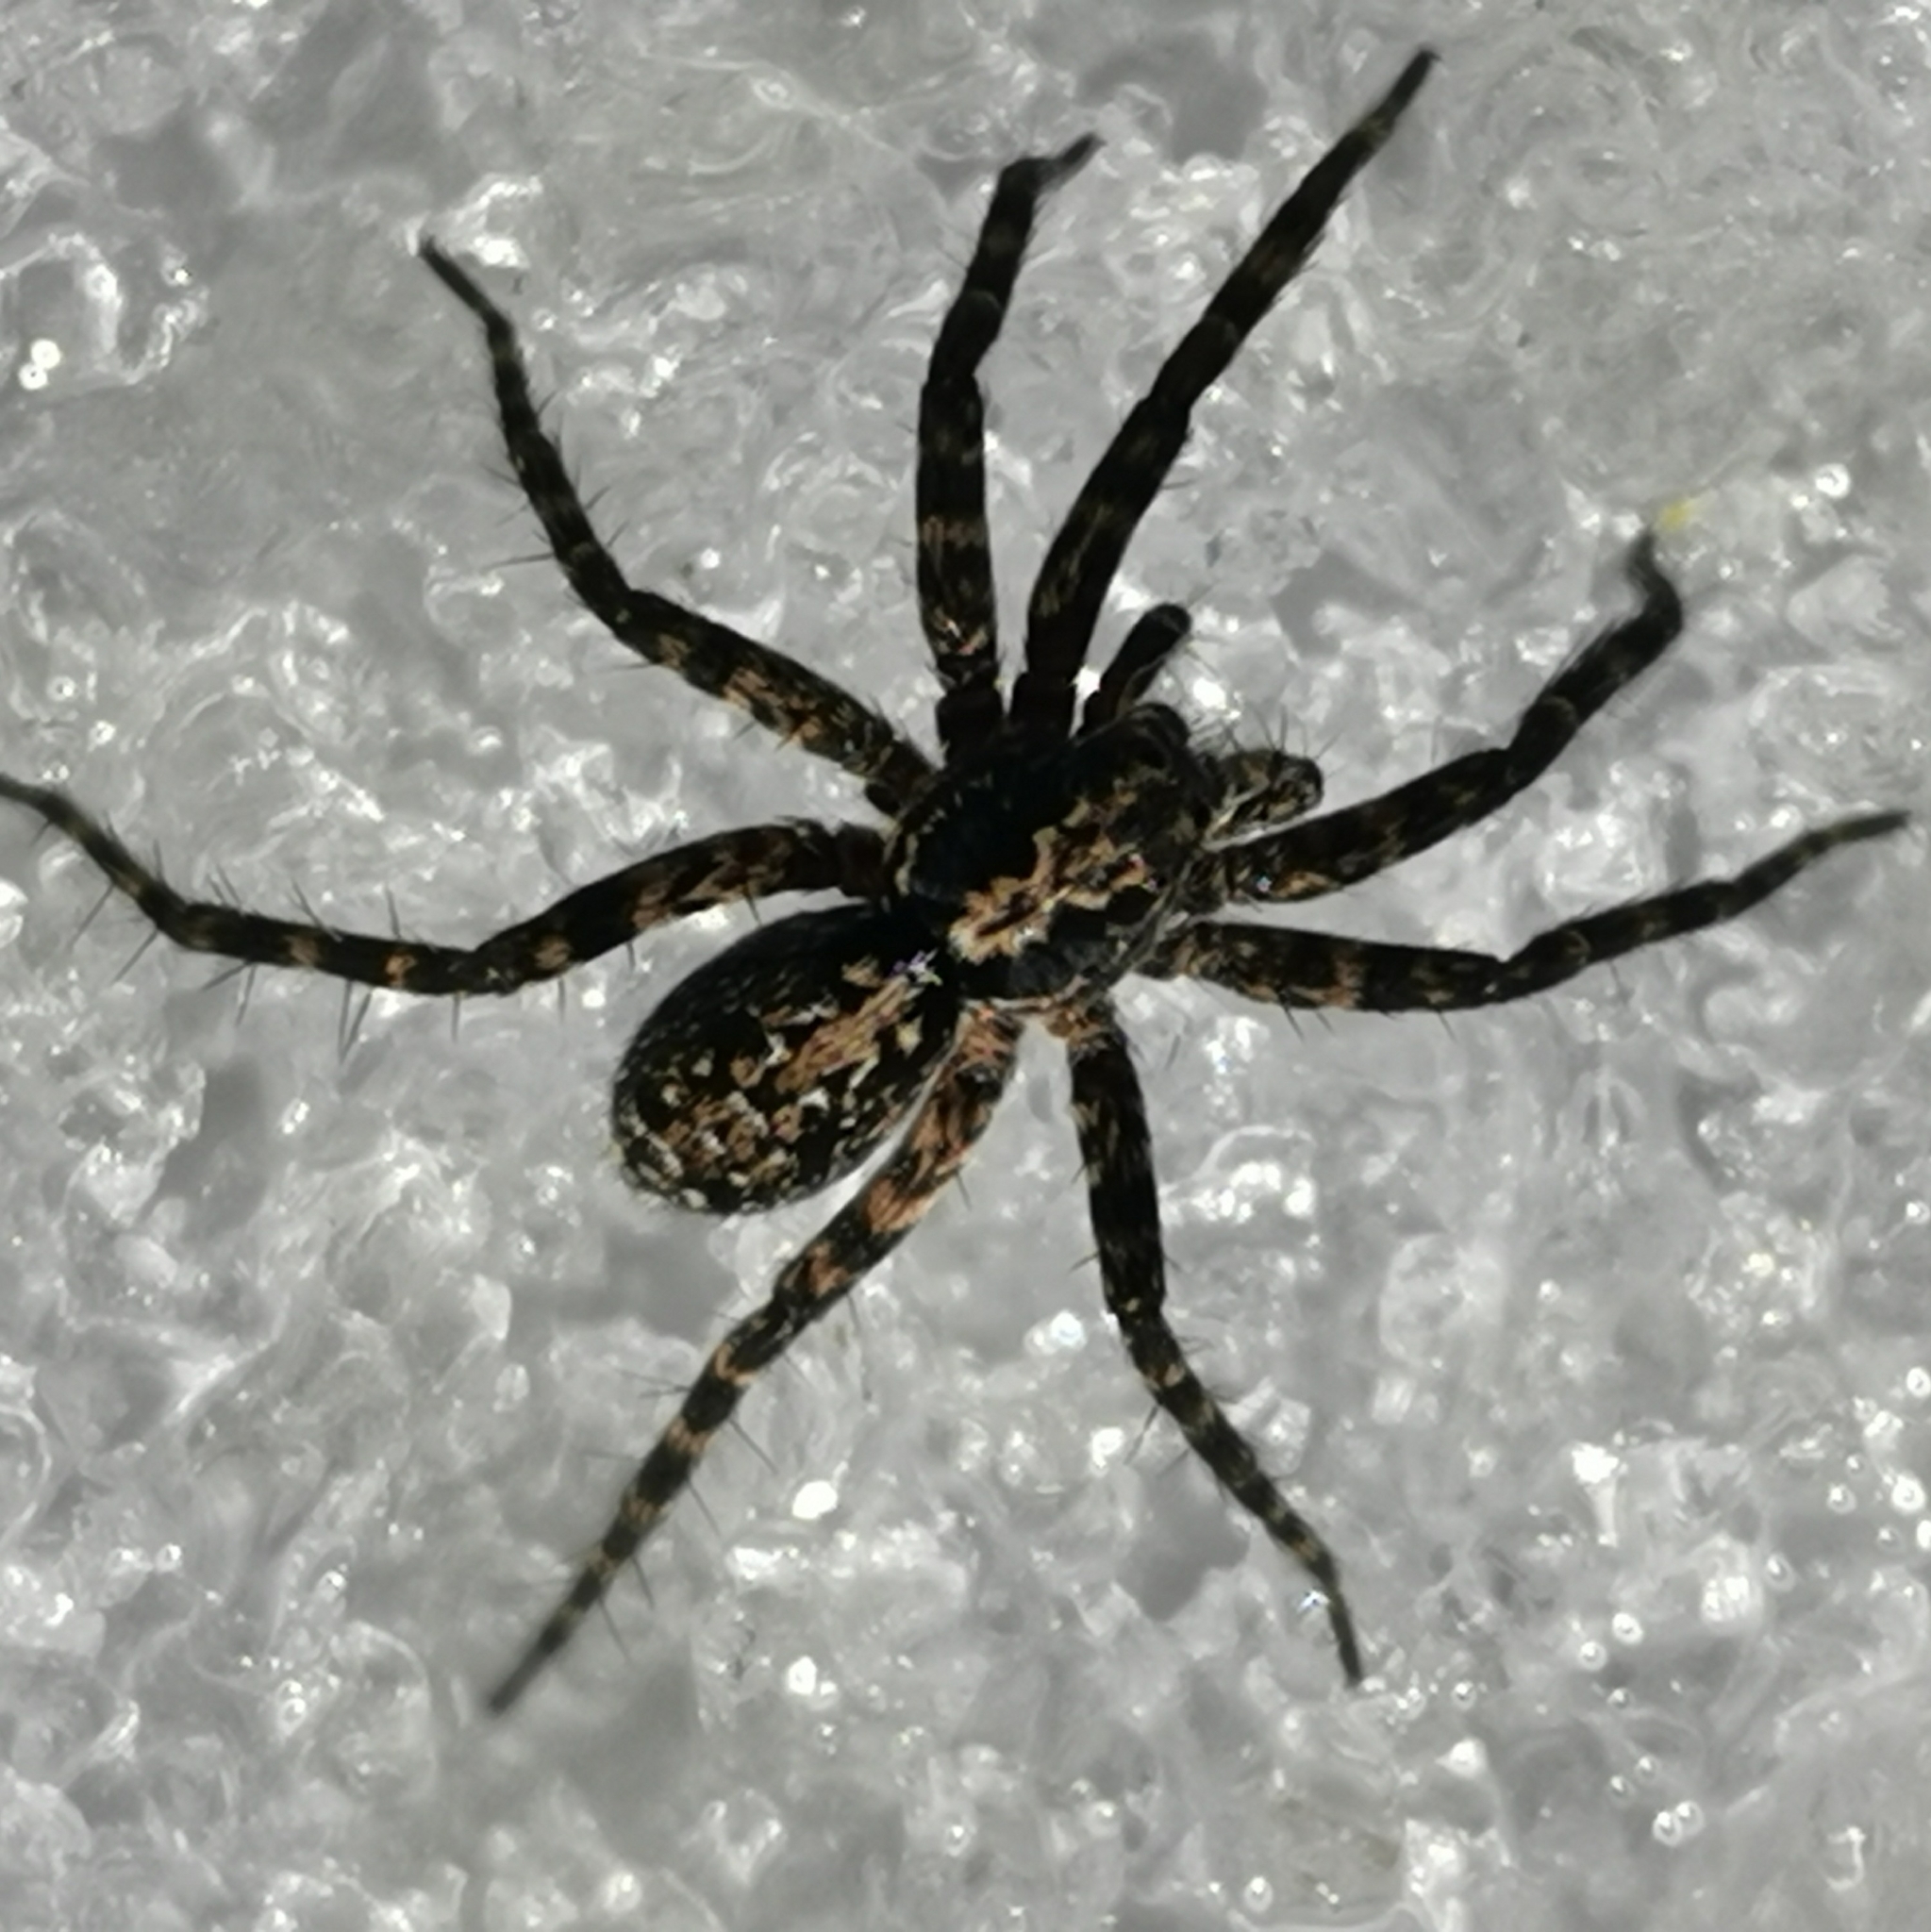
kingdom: Animalia
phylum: Arthropoda
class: Arachnida
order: Araneae
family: Lycosidae
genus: Acantholycosa
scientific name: Acantholycosa lignaria
